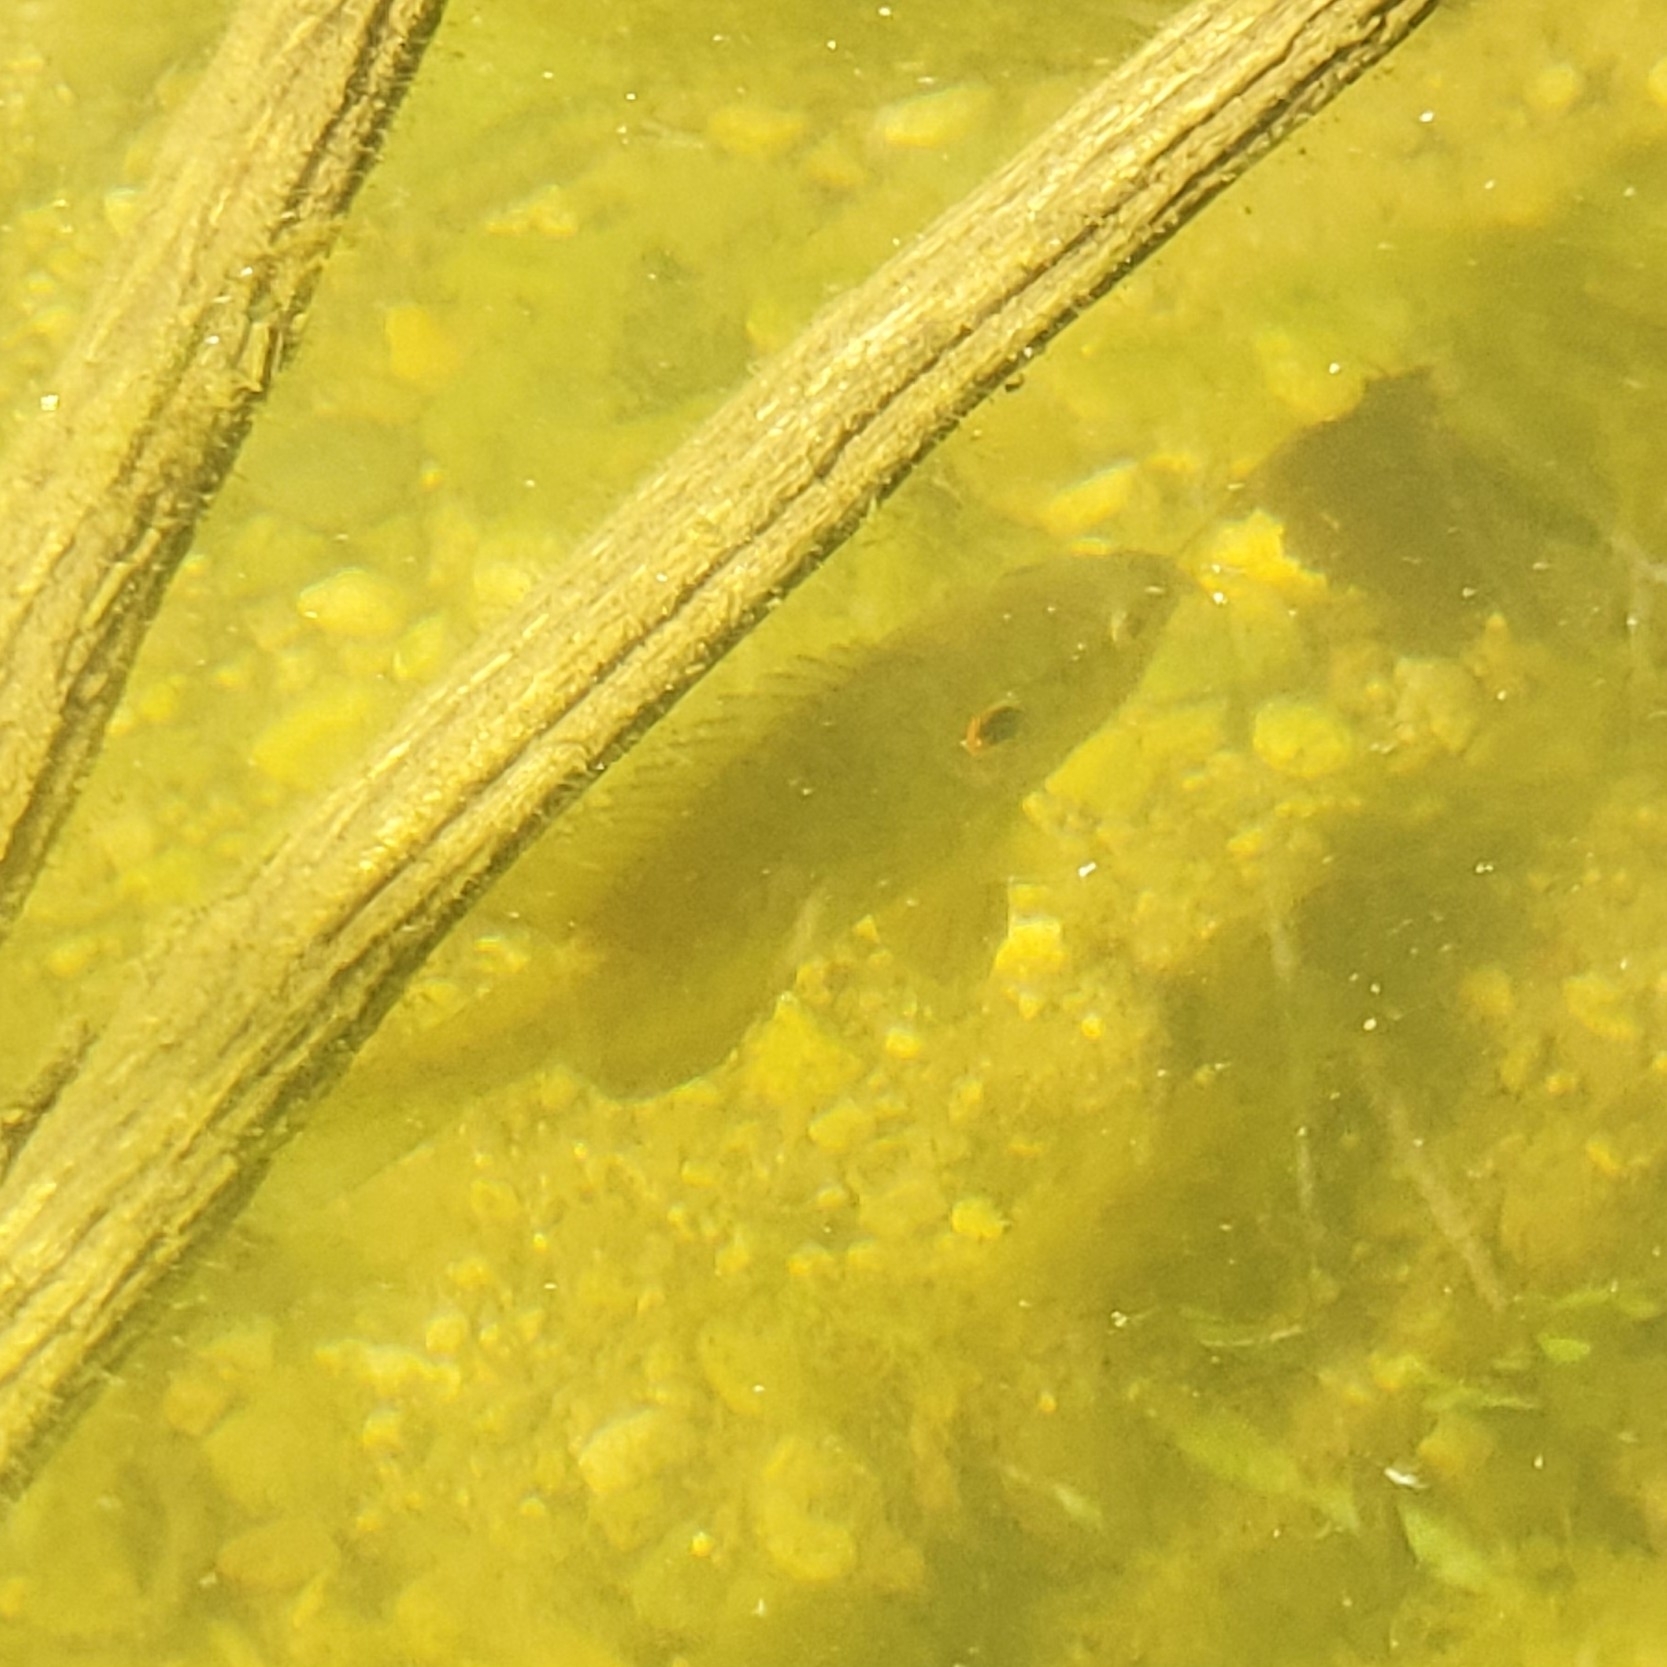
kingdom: Animalia
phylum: Chordata
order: Perciformes
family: Centrarchidae
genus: Lepomis
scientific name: Lepomis cyanellus
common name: Green sunfish
